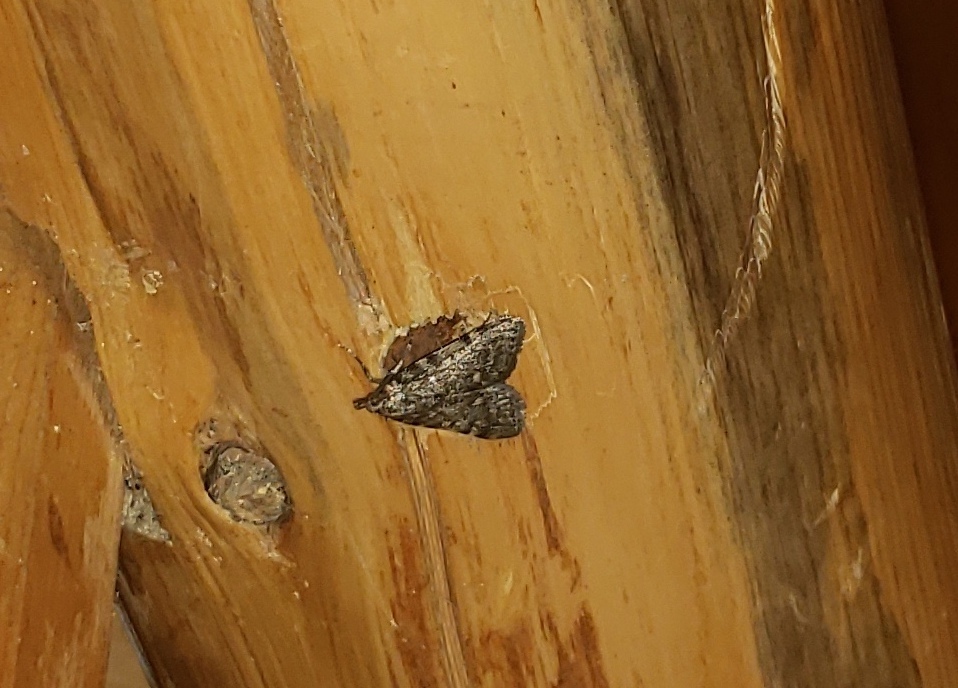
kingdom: Animalia
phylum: Arthropoda
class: Insecta
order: Lepidoptera
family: Pyralidae
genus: Aglossa
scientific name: Aglossa pinguinalis
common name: Large tabby
